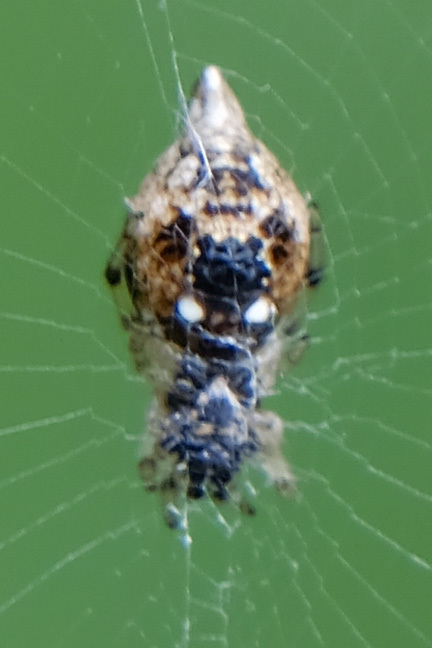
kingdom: Animalia
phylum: Arthropoda
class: Arachnida
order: Araneae
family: Araneidae
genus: Cyclosa
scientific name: Cyclosa turbinata
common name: Orb weavers
